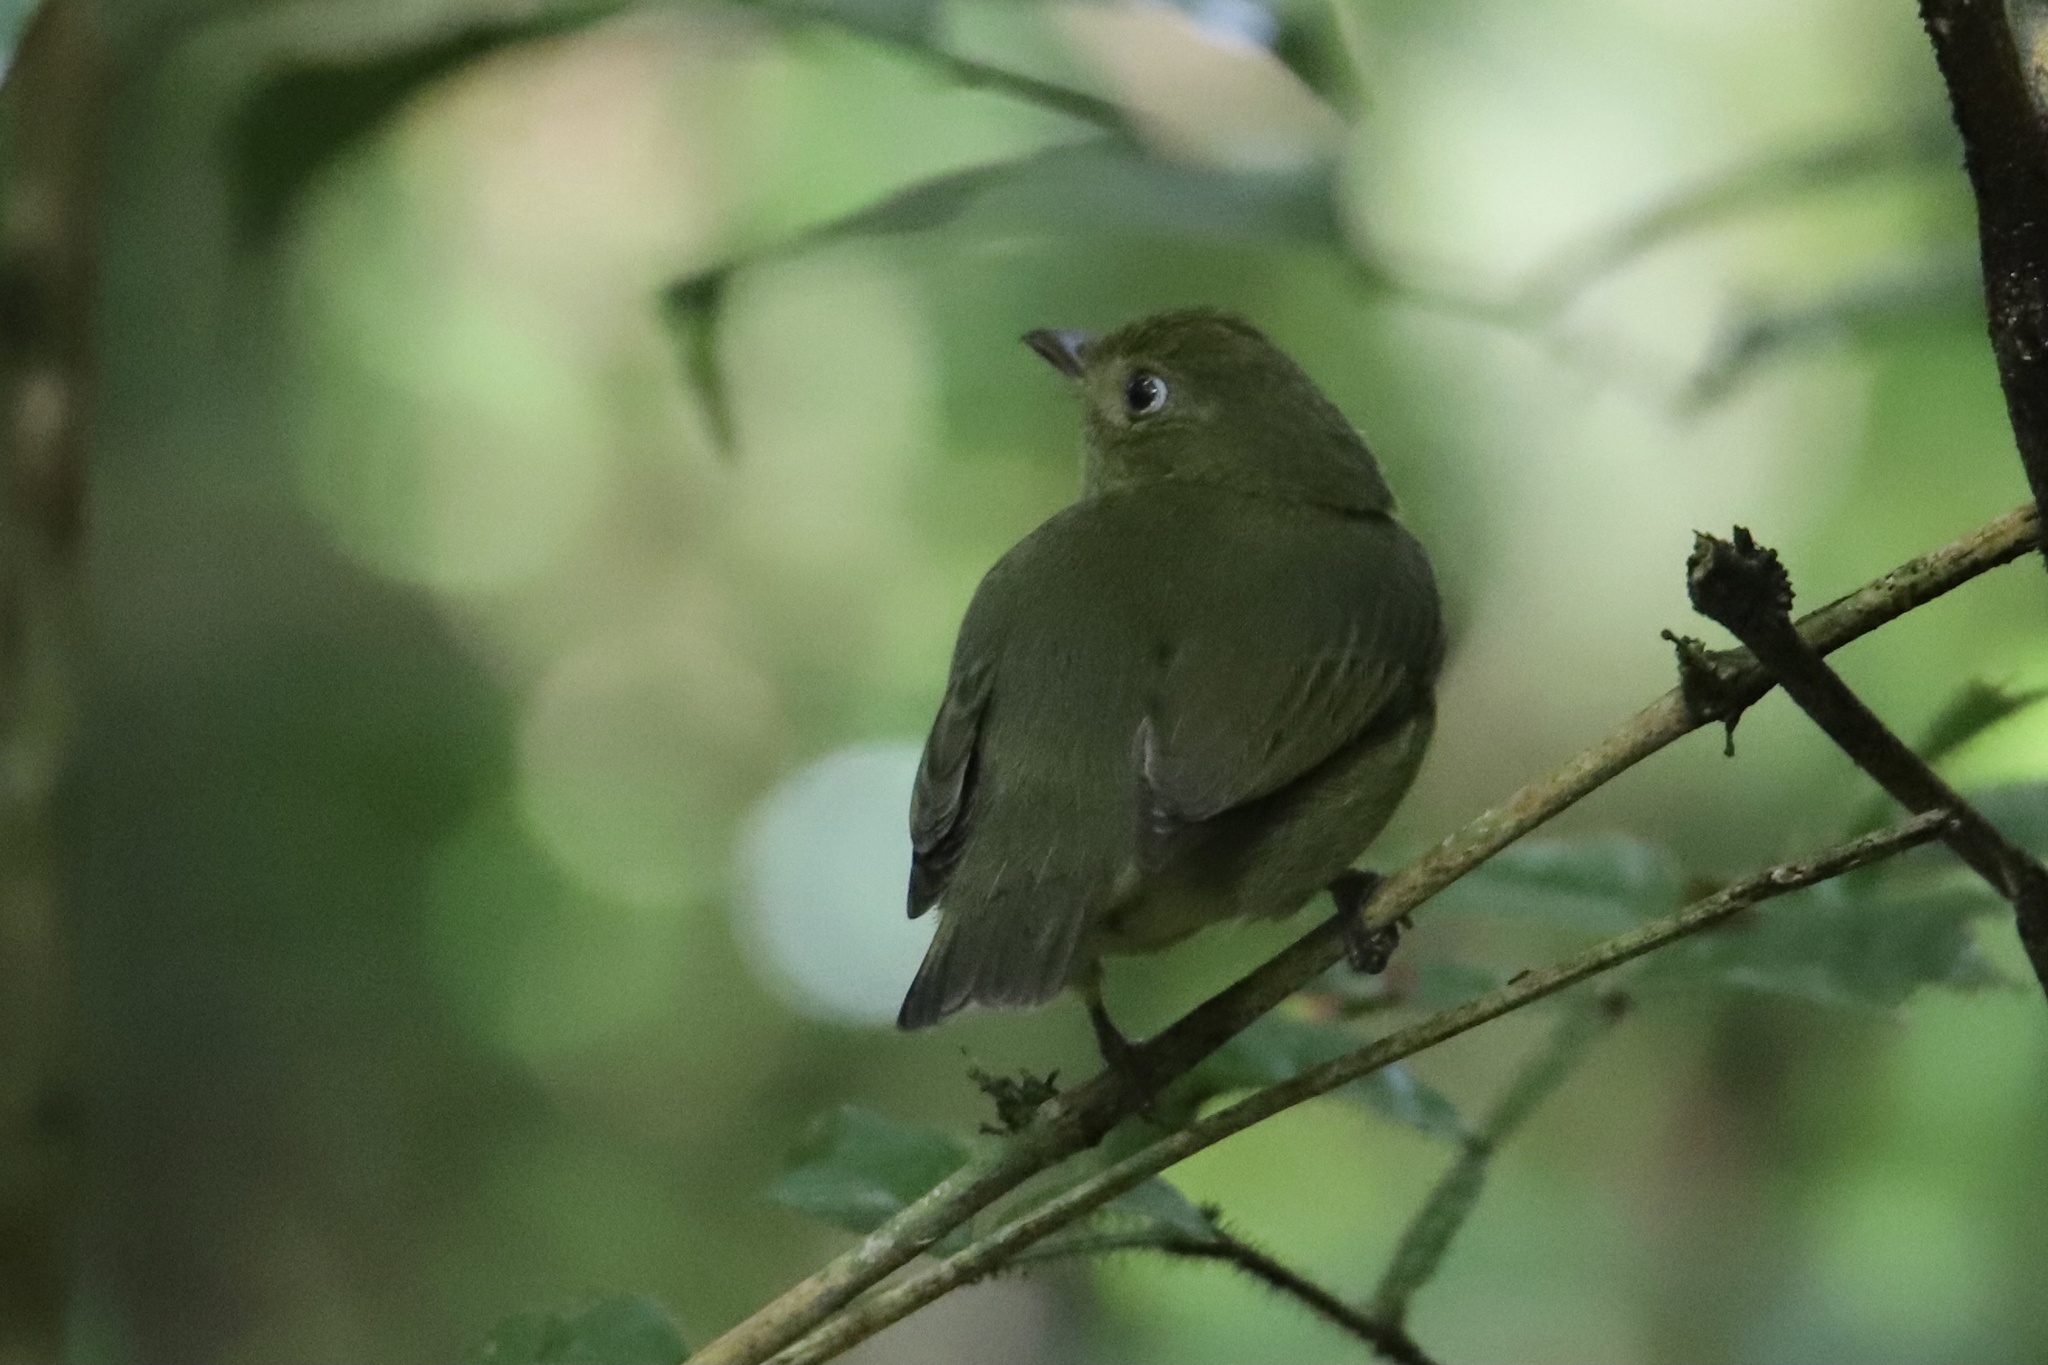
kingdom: Animalia
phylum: Chordata
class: Aves
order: Passeriformes
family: Pipridae
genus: Pipra
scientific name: Pipra mentalis
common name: Red-capped manakin
